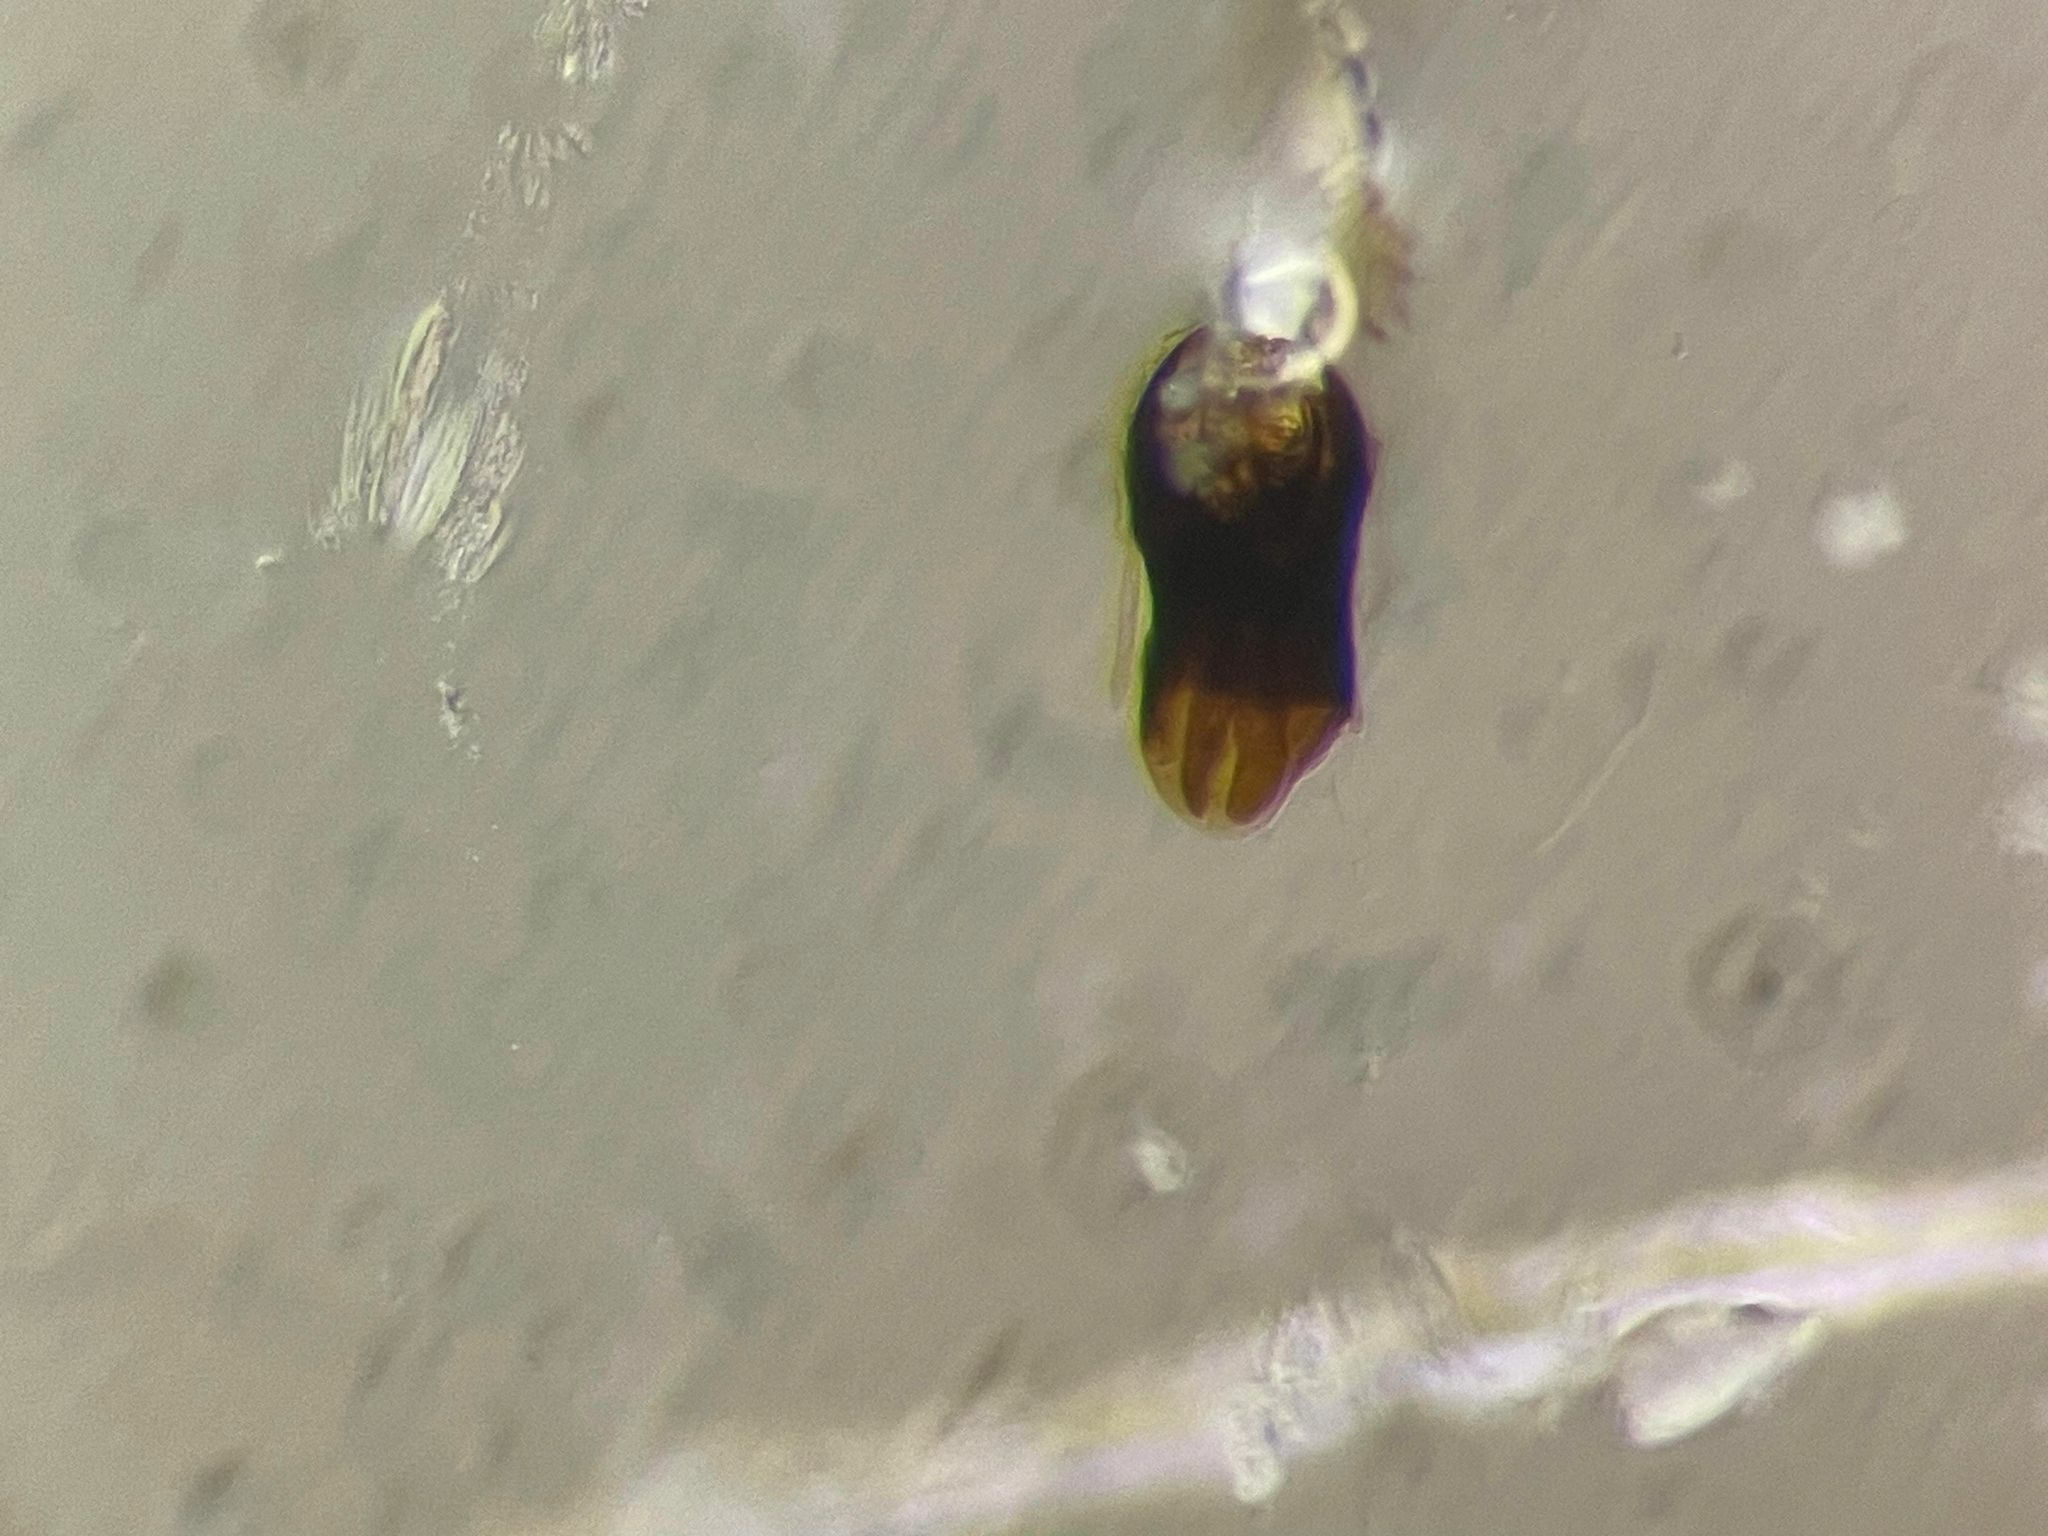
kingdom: Animalia
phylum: Arthropoda
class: Insecta
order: Coleoptera
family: Staphylinidae
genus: Stenichnus
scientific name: Stenichnus scutellaris
